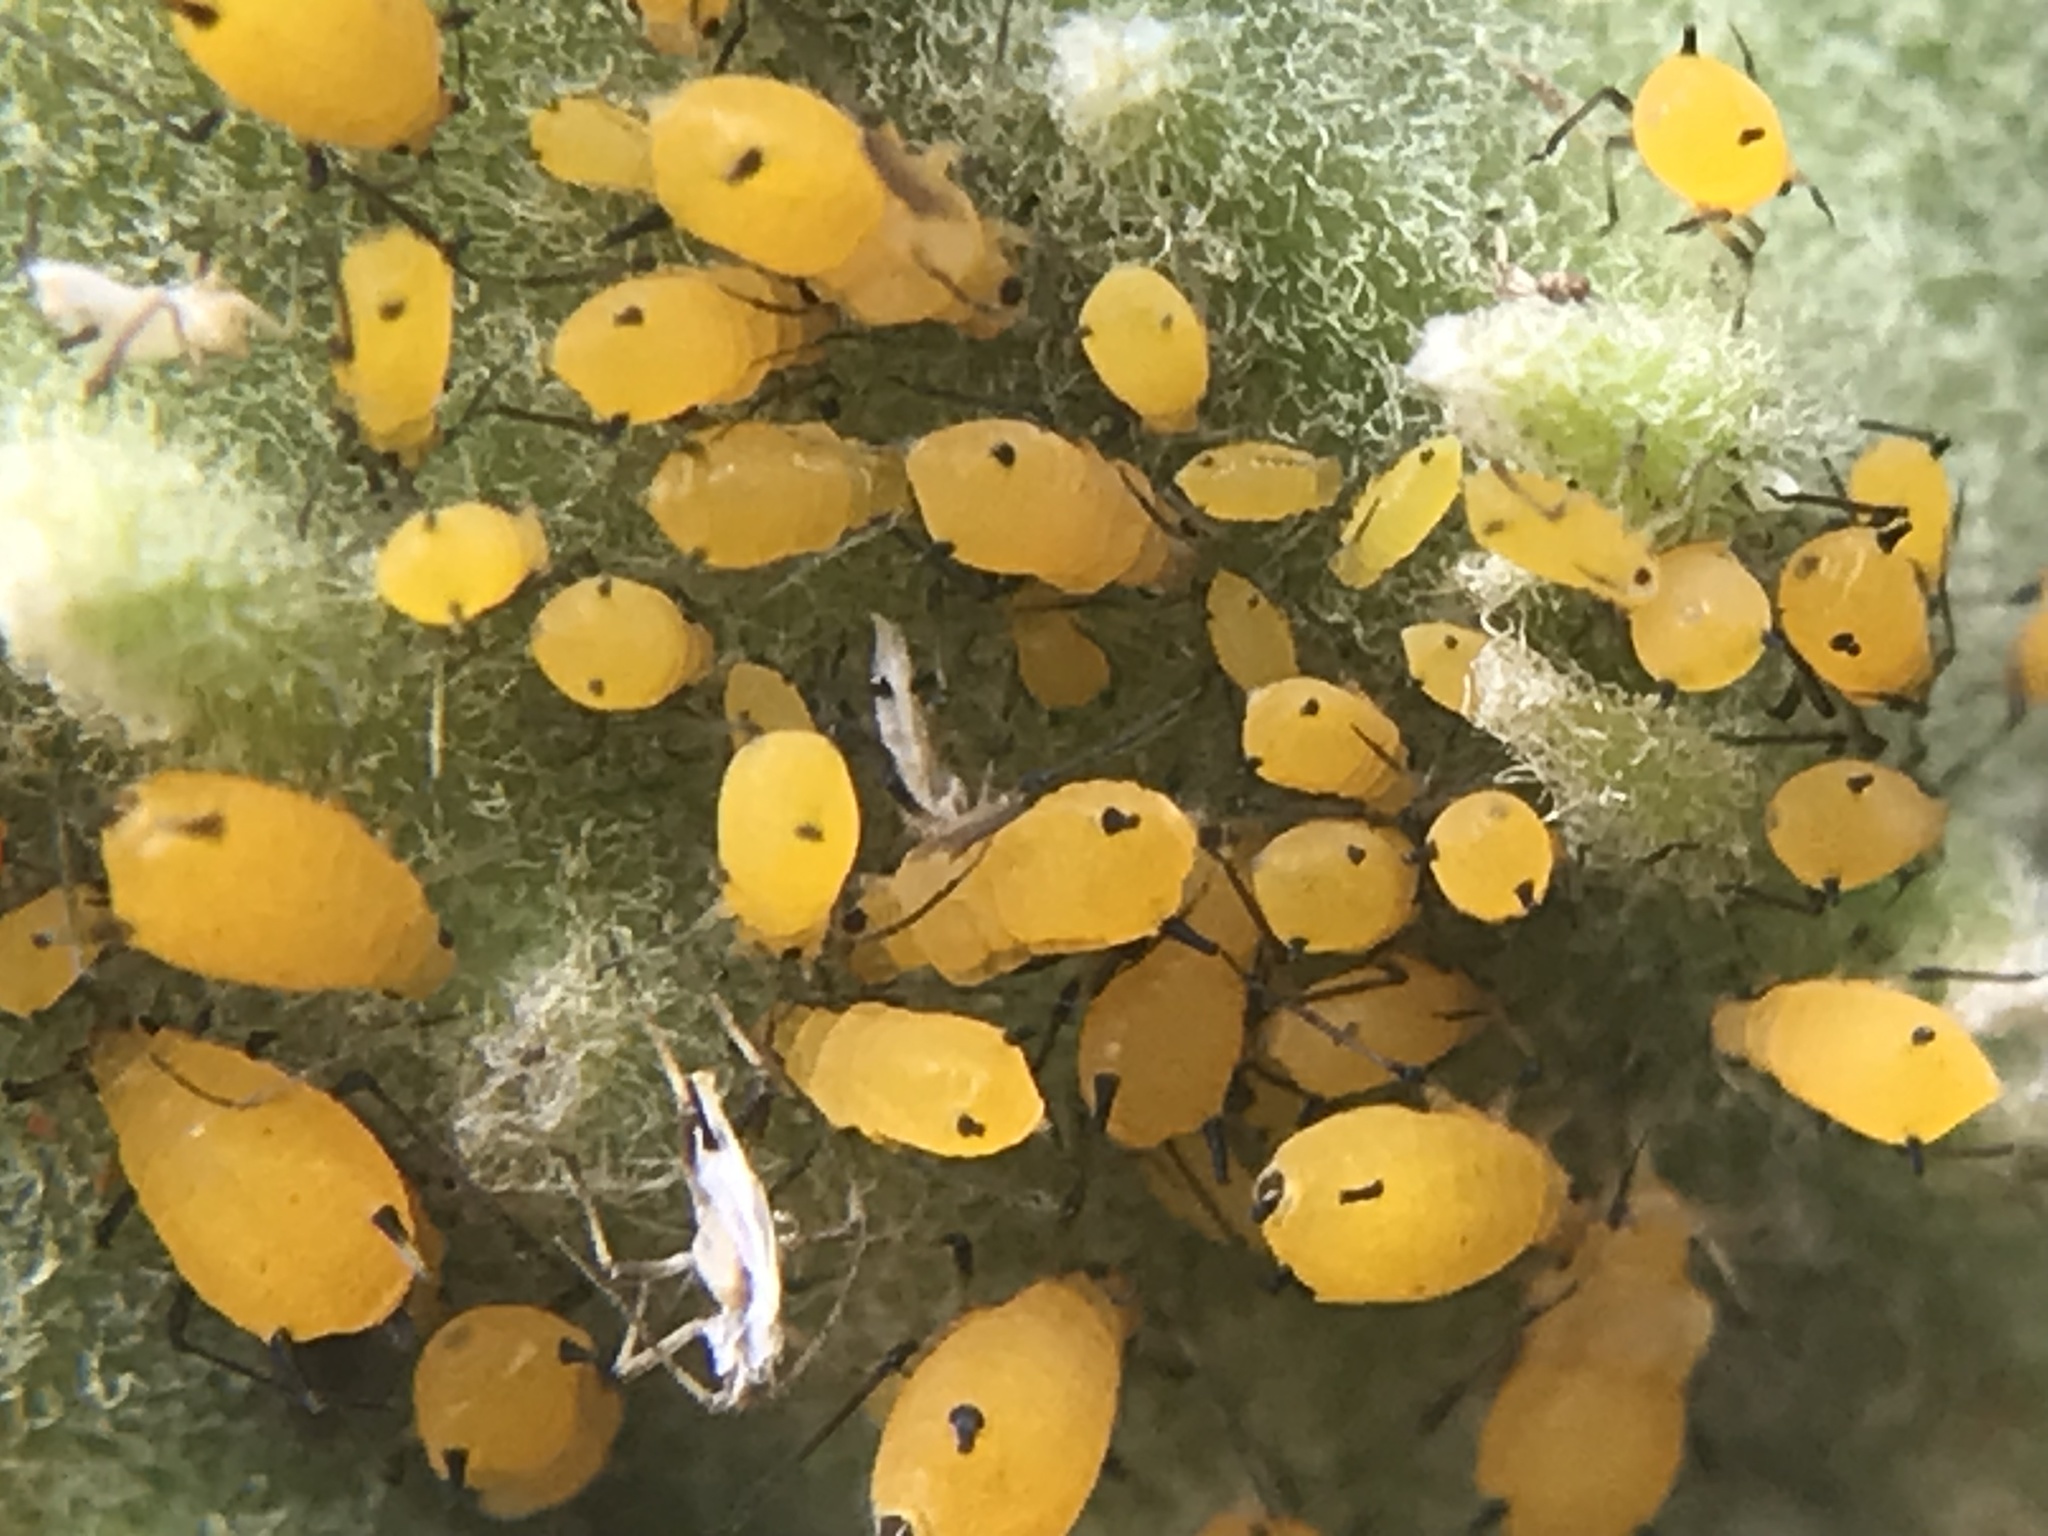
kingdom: Animalia
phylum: Arthropoda
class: Insecta
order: Hemiptera
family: Aphididae
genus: Aphis
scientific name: Aphis nerii
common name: Oleander aphid
